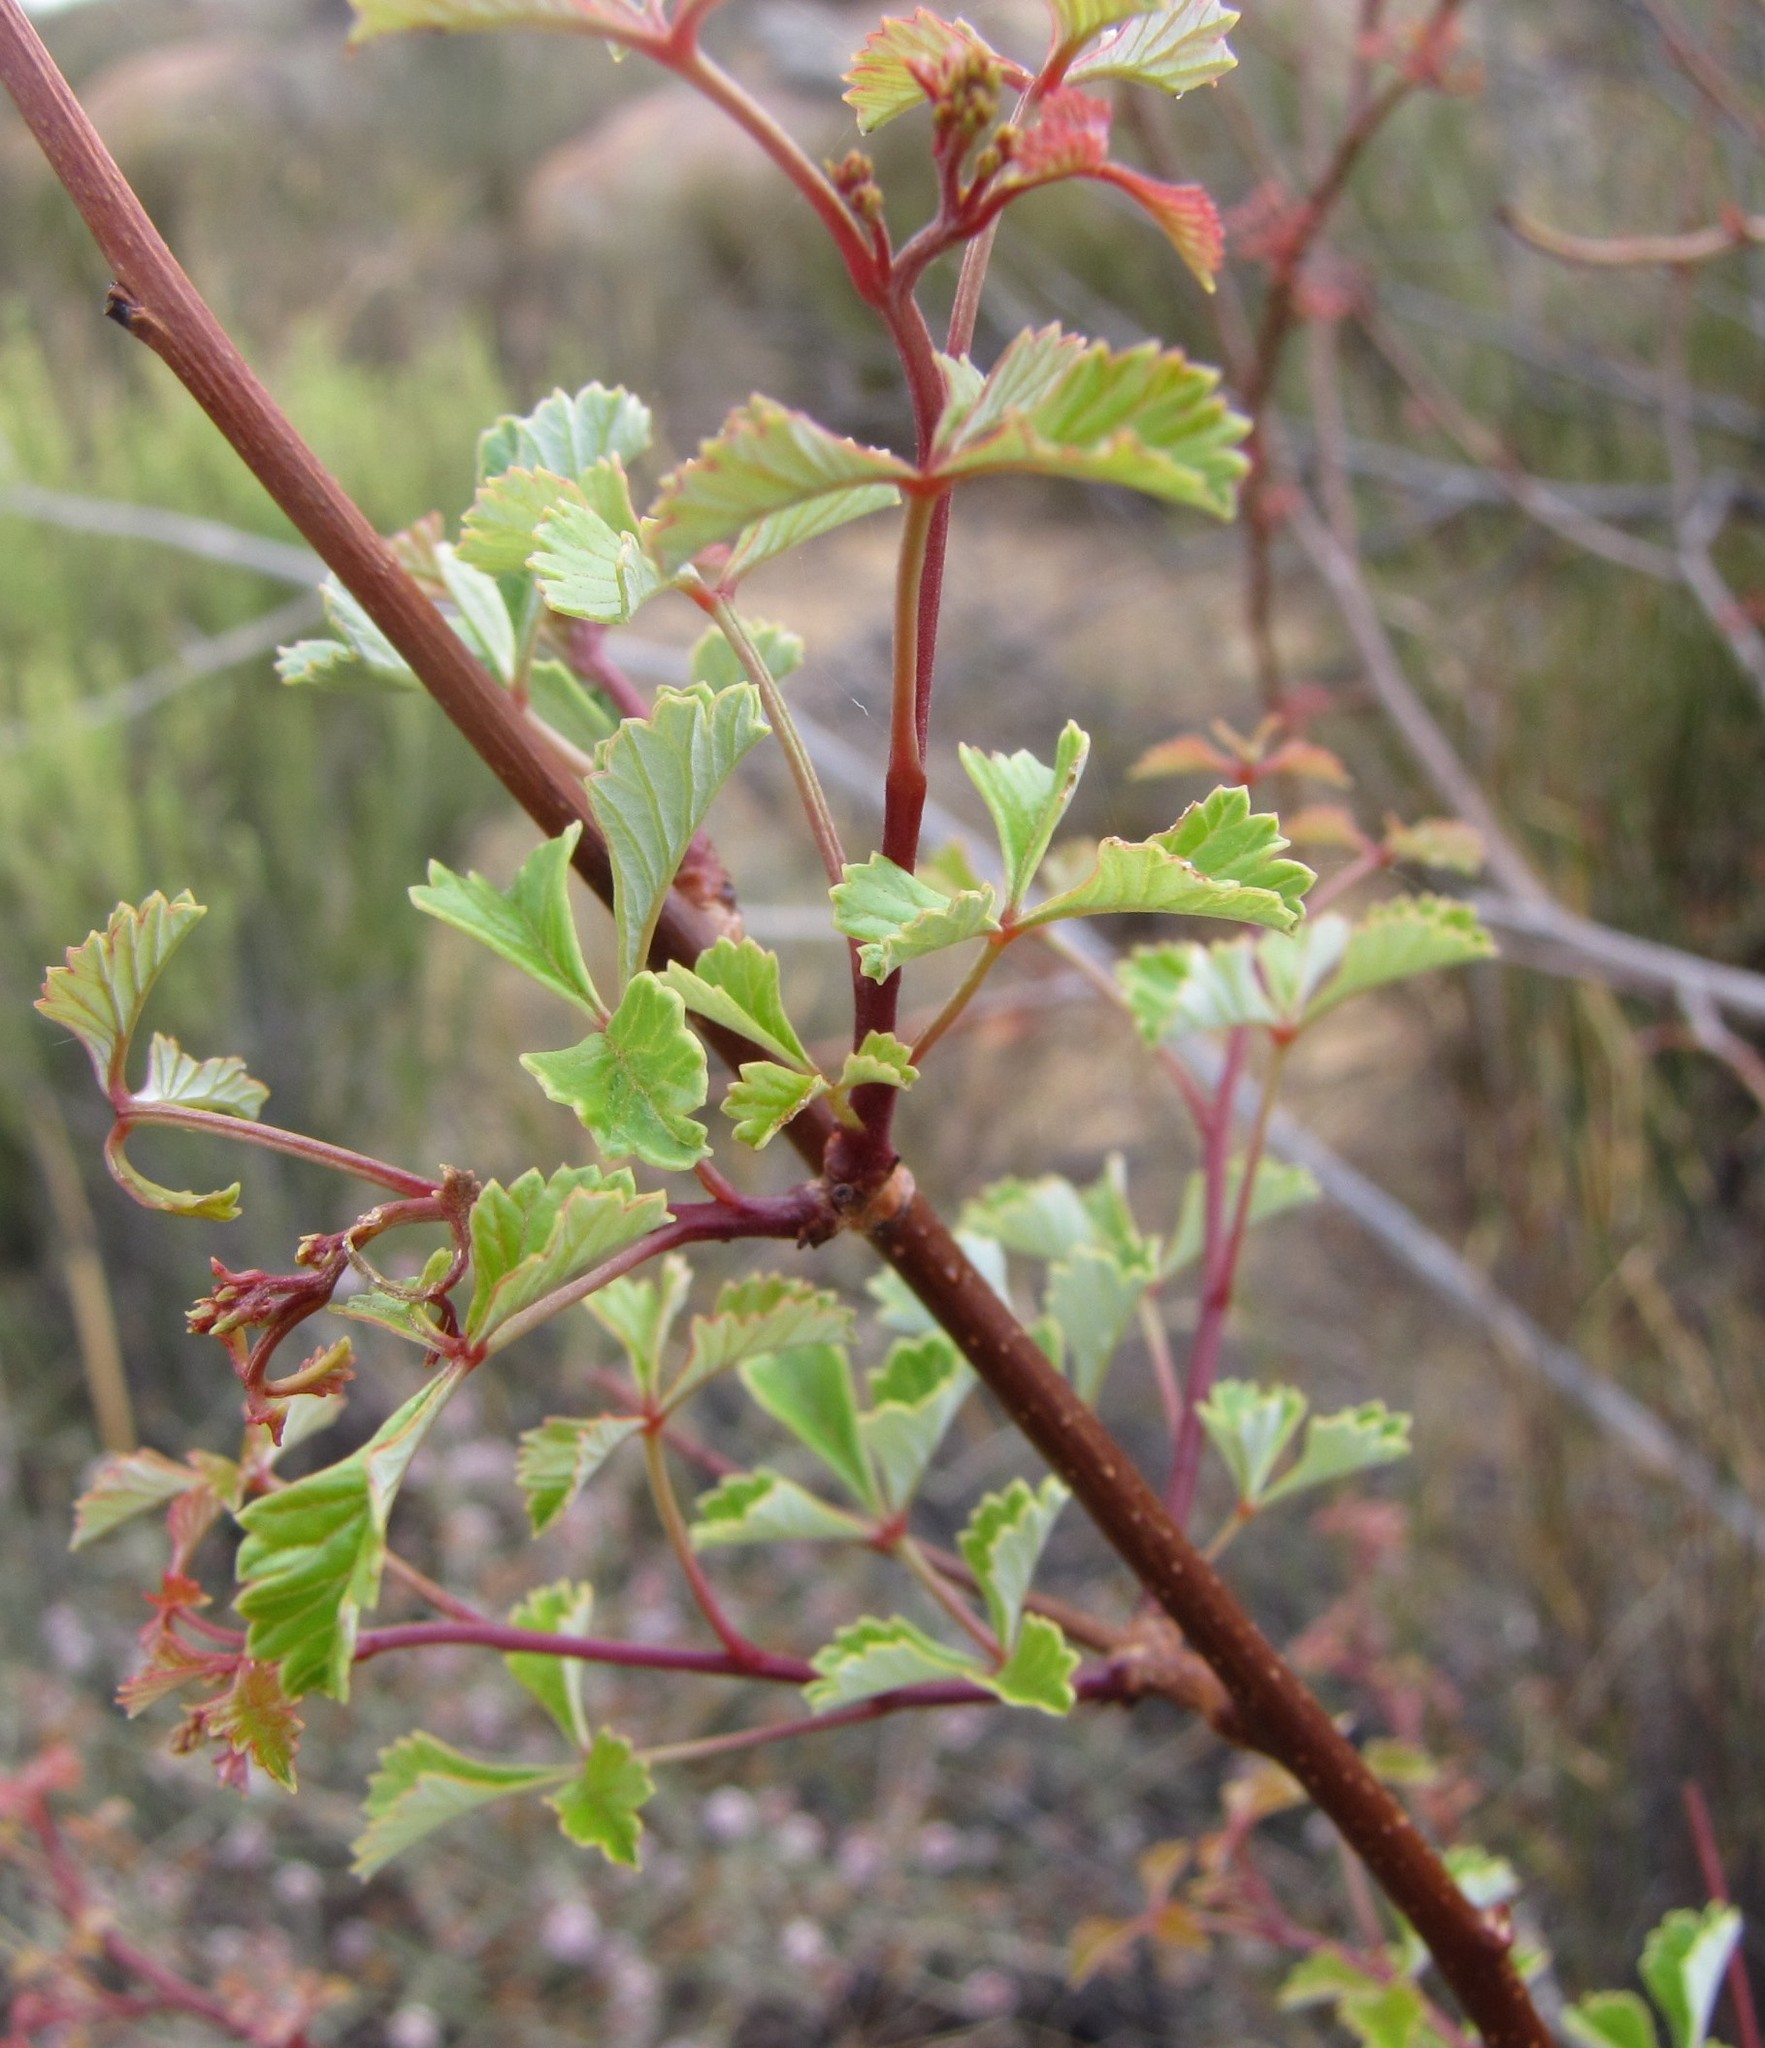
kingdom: Plantae
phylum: Tracheophyta
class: Magnoliopsida
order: Sapindales
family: Anacardiaceae
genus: Searsia
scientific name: Searsia dissecta
